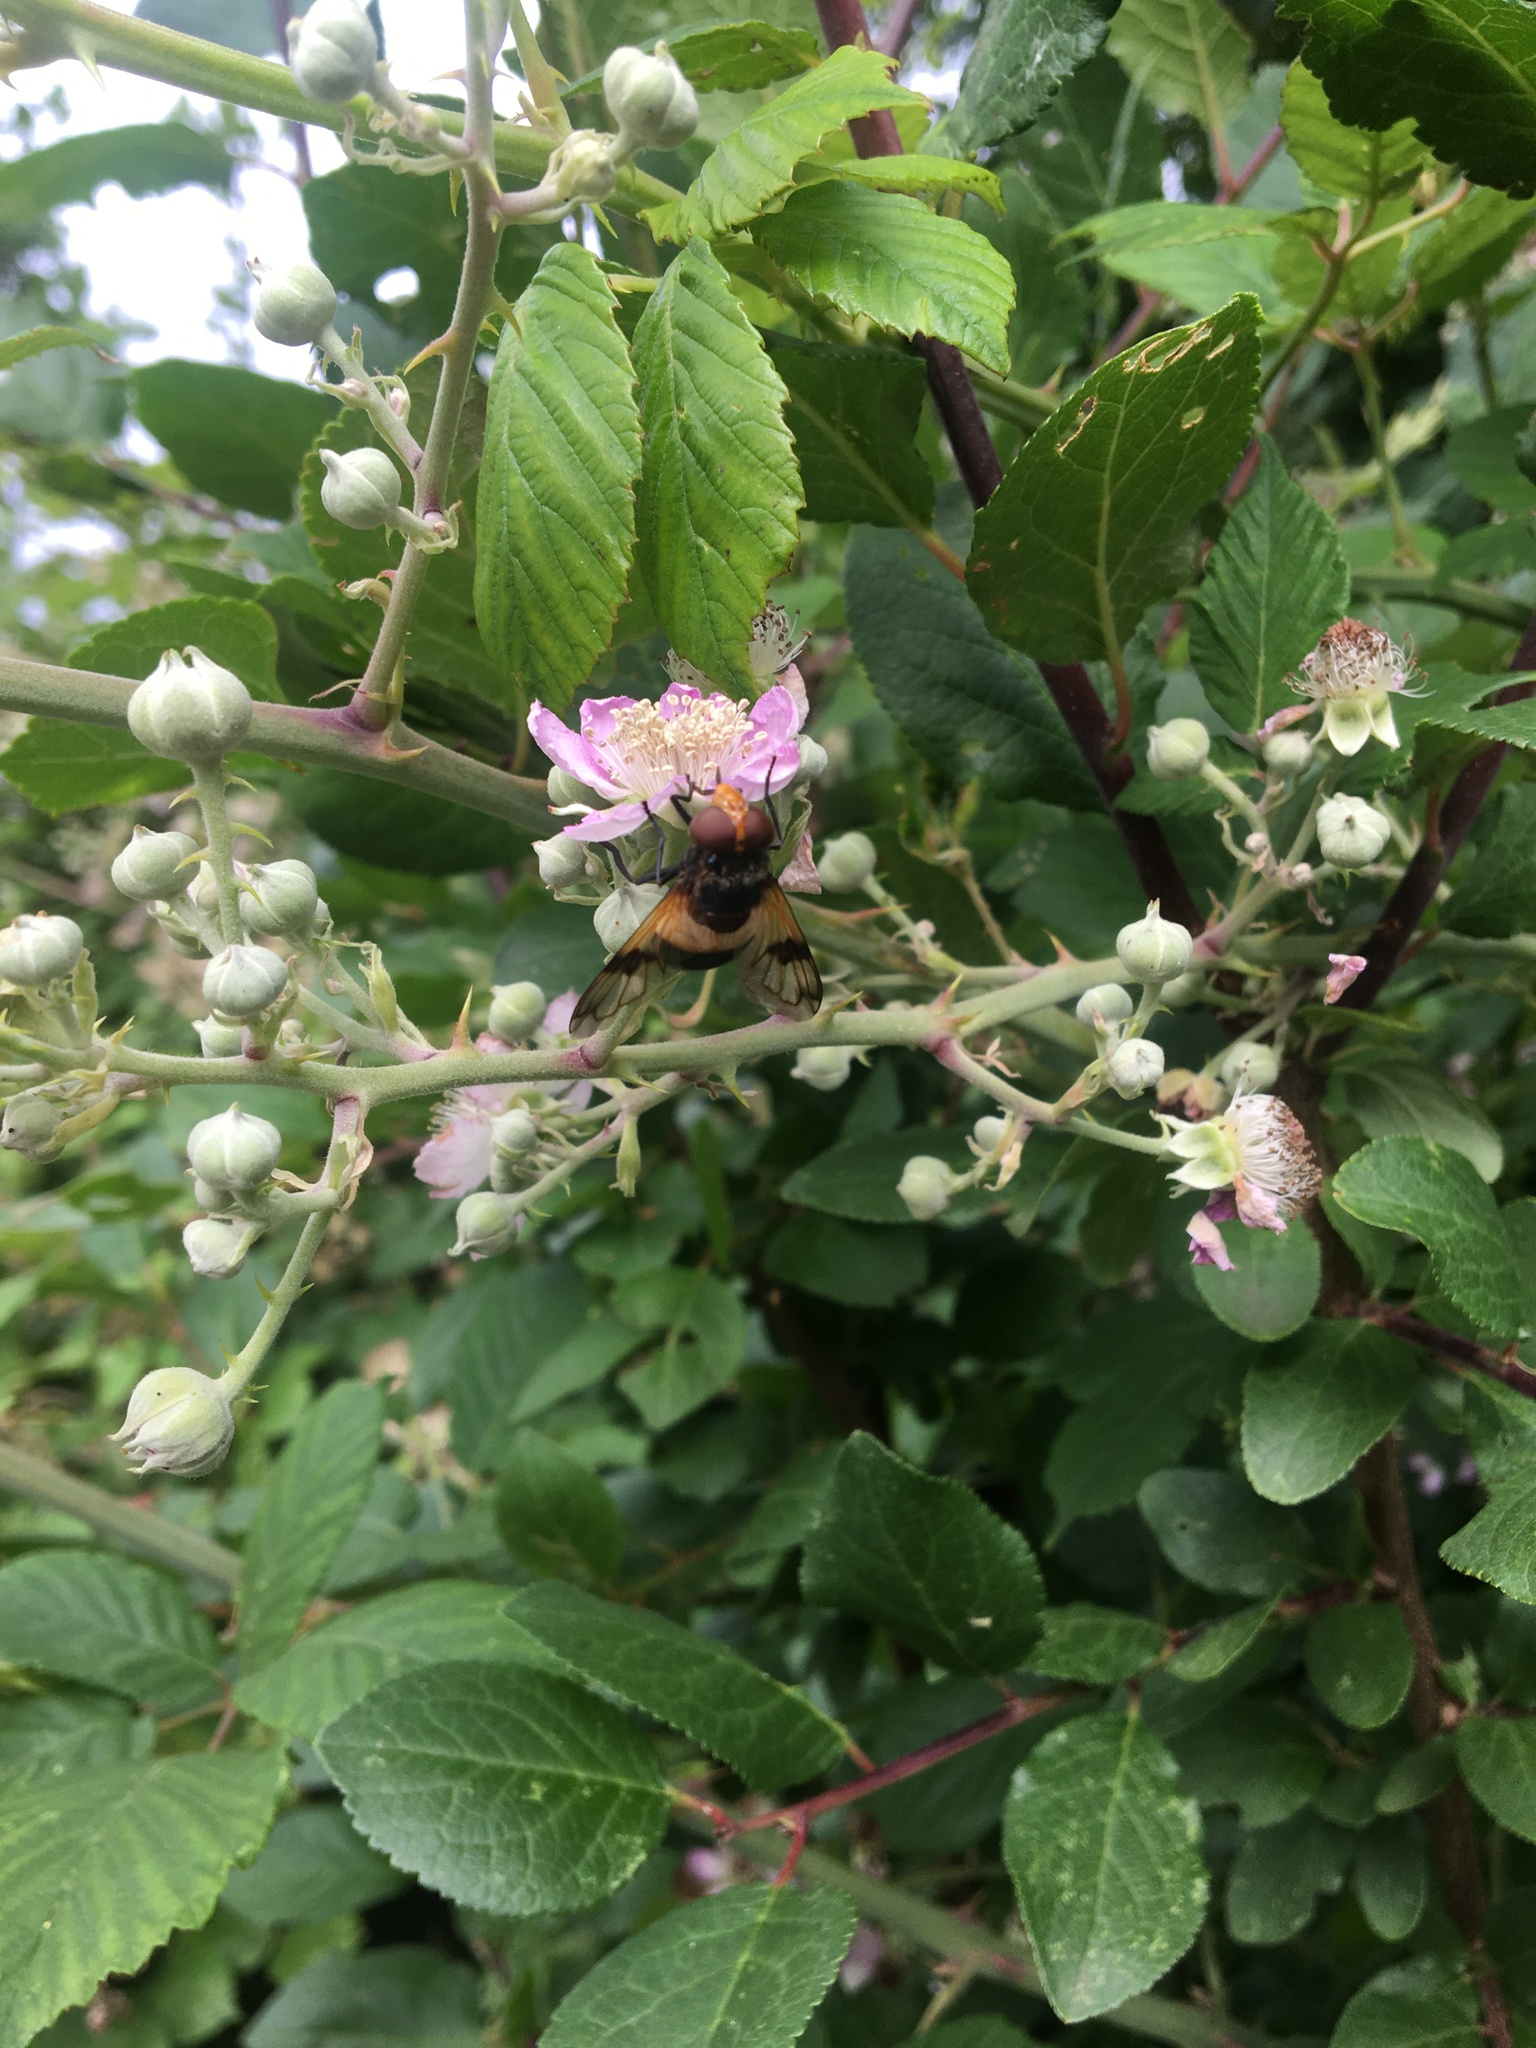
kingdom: Animalia
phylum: Arthropoda
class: Insecta
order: Diptera
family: Syrphidae
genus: Volucella
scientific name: Volucella pellucens
